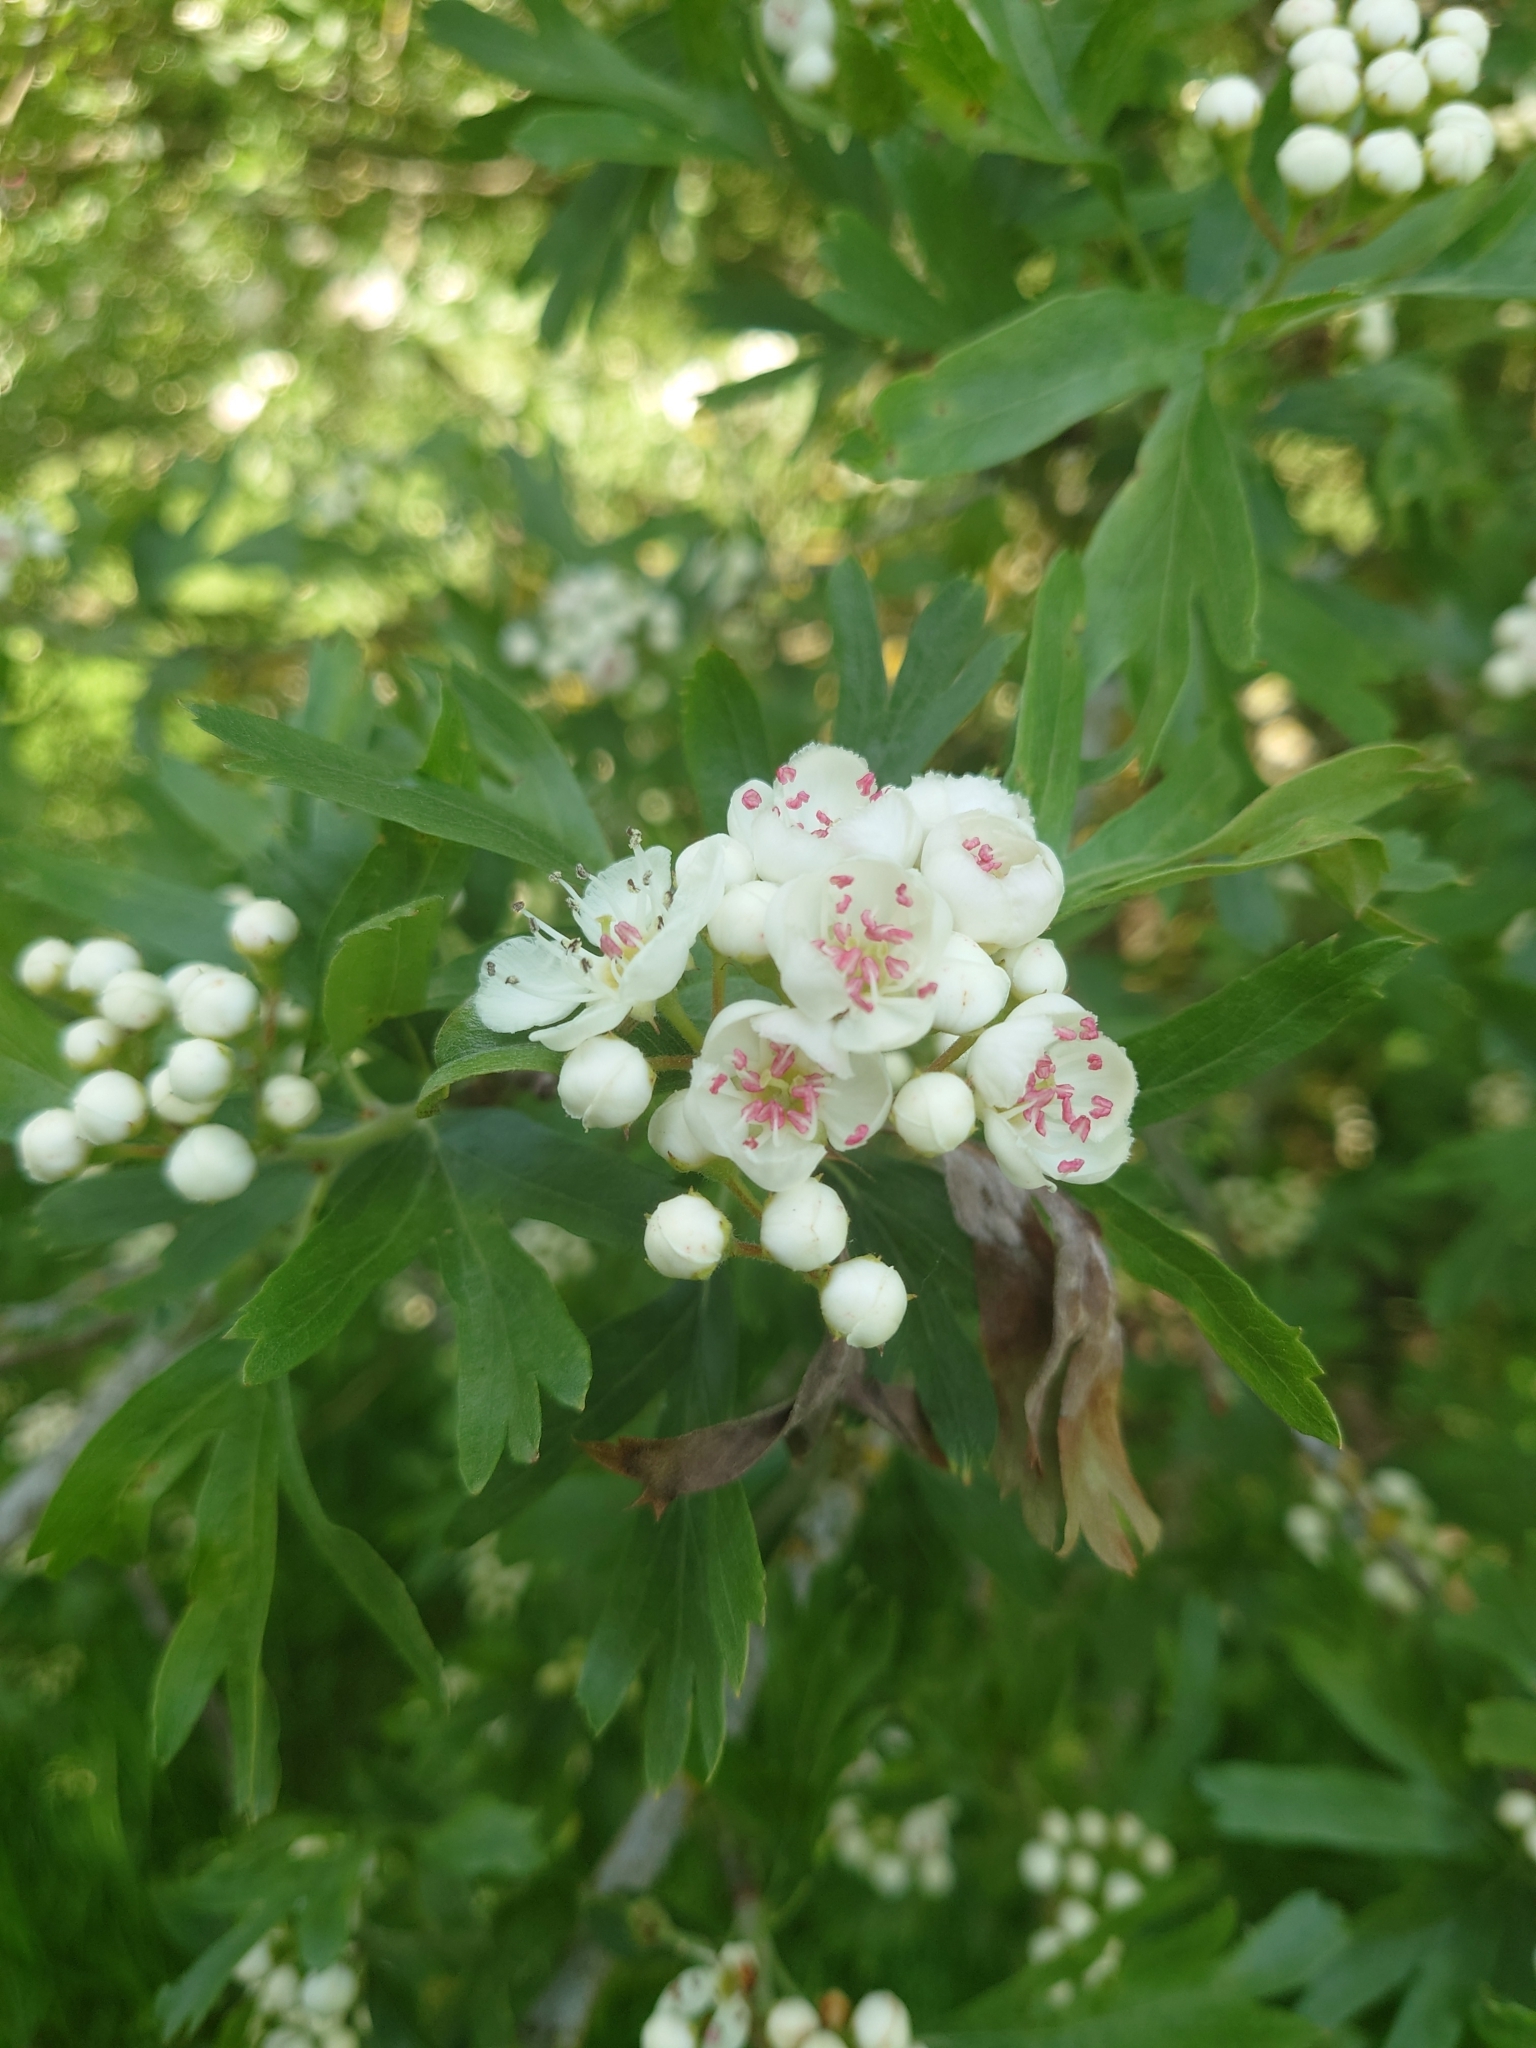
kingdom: Plantae
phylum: Tracheophyta
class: Magnoliopsida
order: Rosales
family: Rosaceae
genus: Crataegus
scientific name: Crataegus monogyna
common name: Hawthorn
